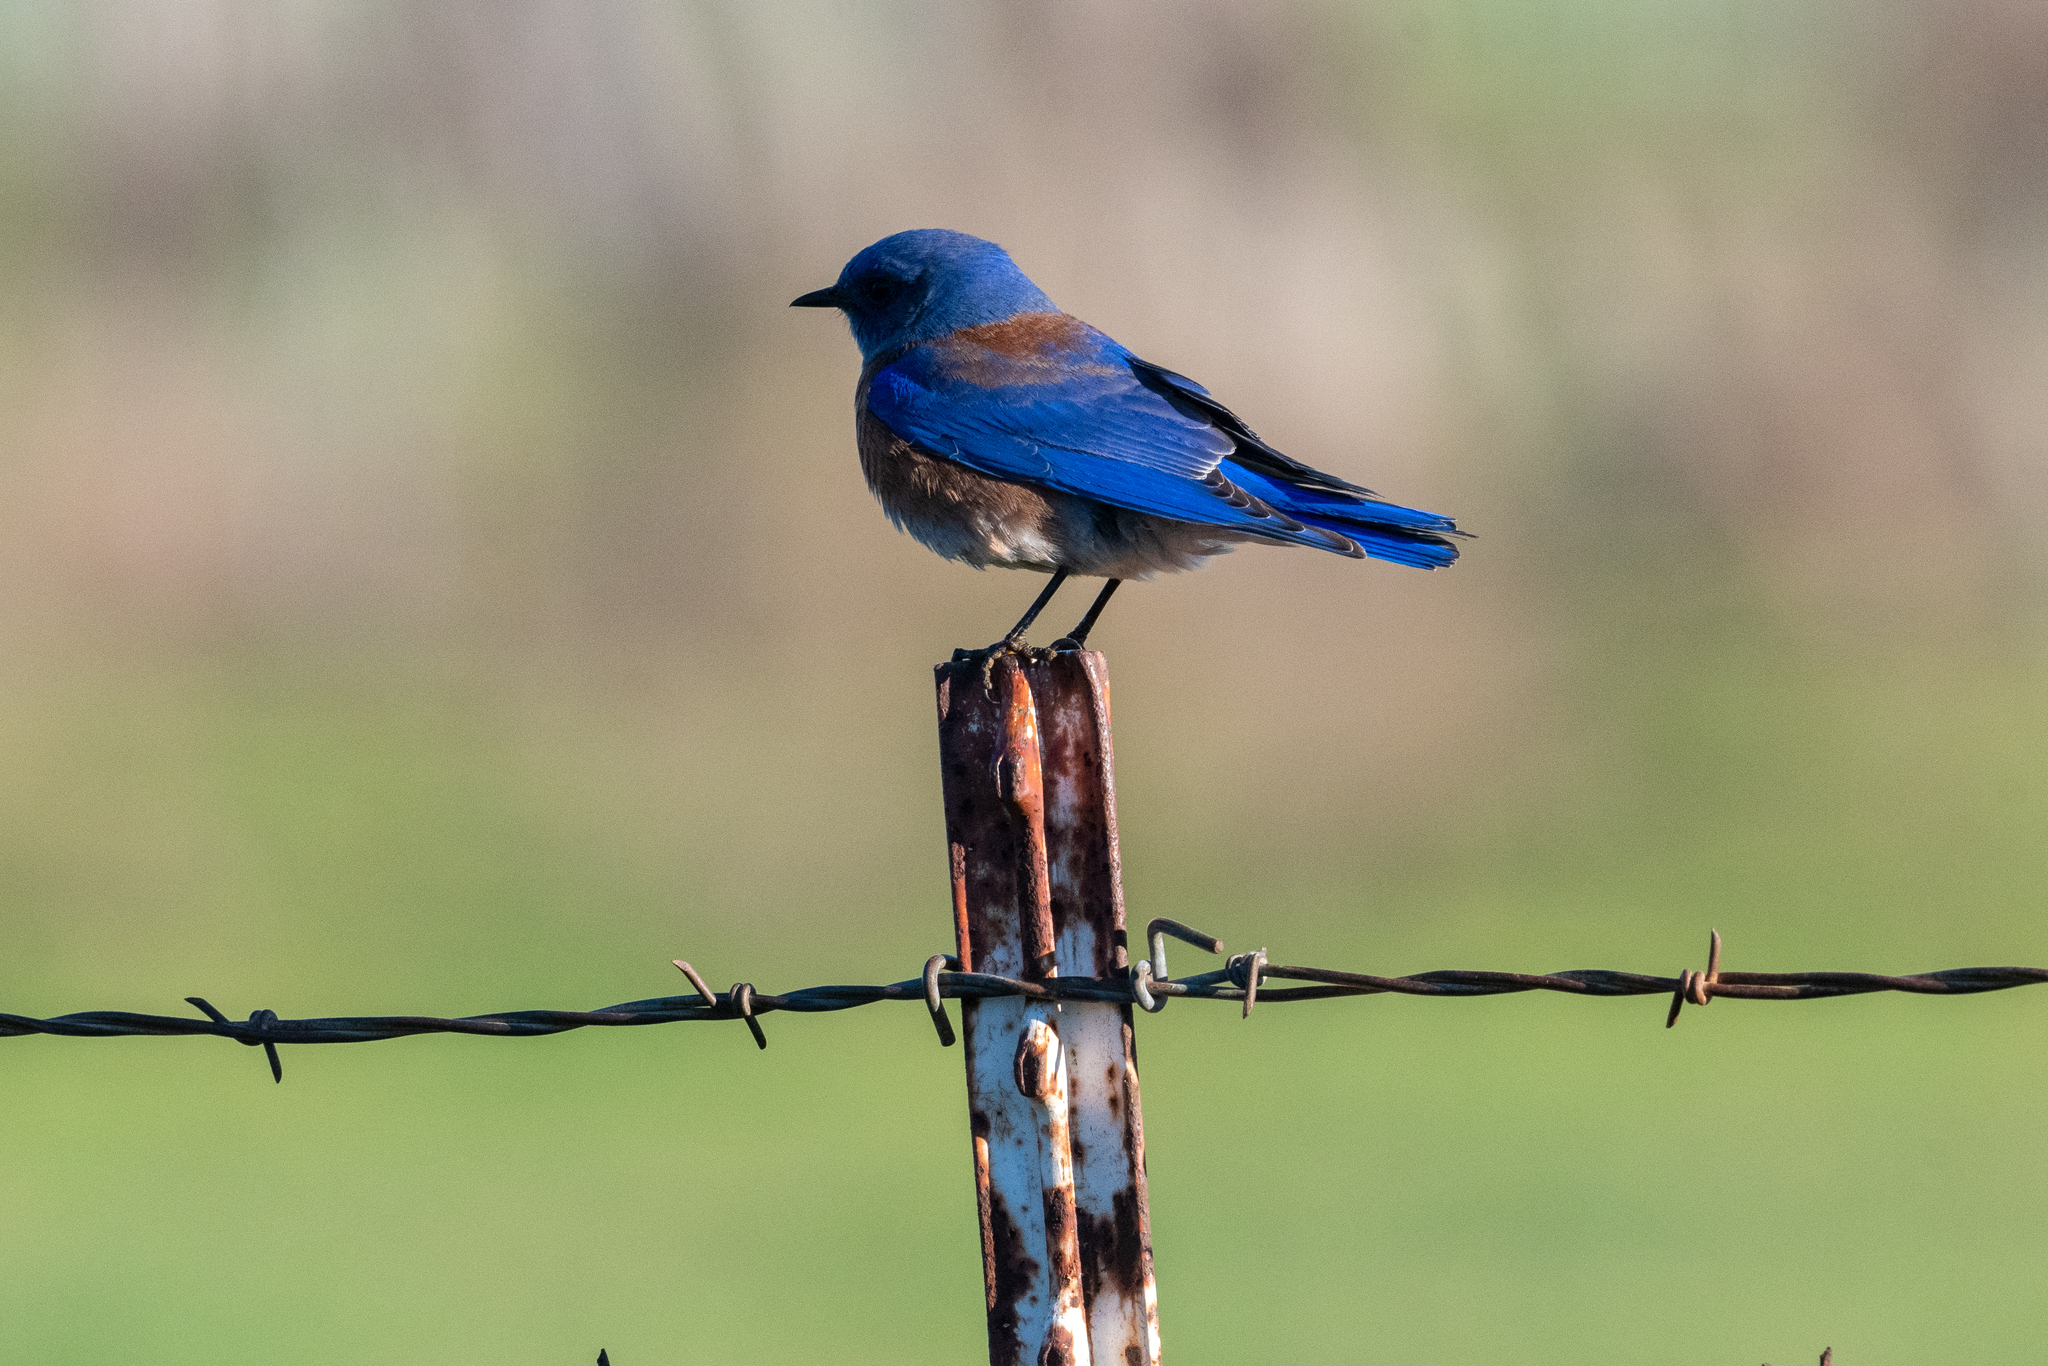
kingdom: Animalia
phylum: Chordata
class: Aves
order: Passeriformes
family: Turdidae
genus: Sialia
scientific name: Sialia mexicana
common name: Western bluebird
